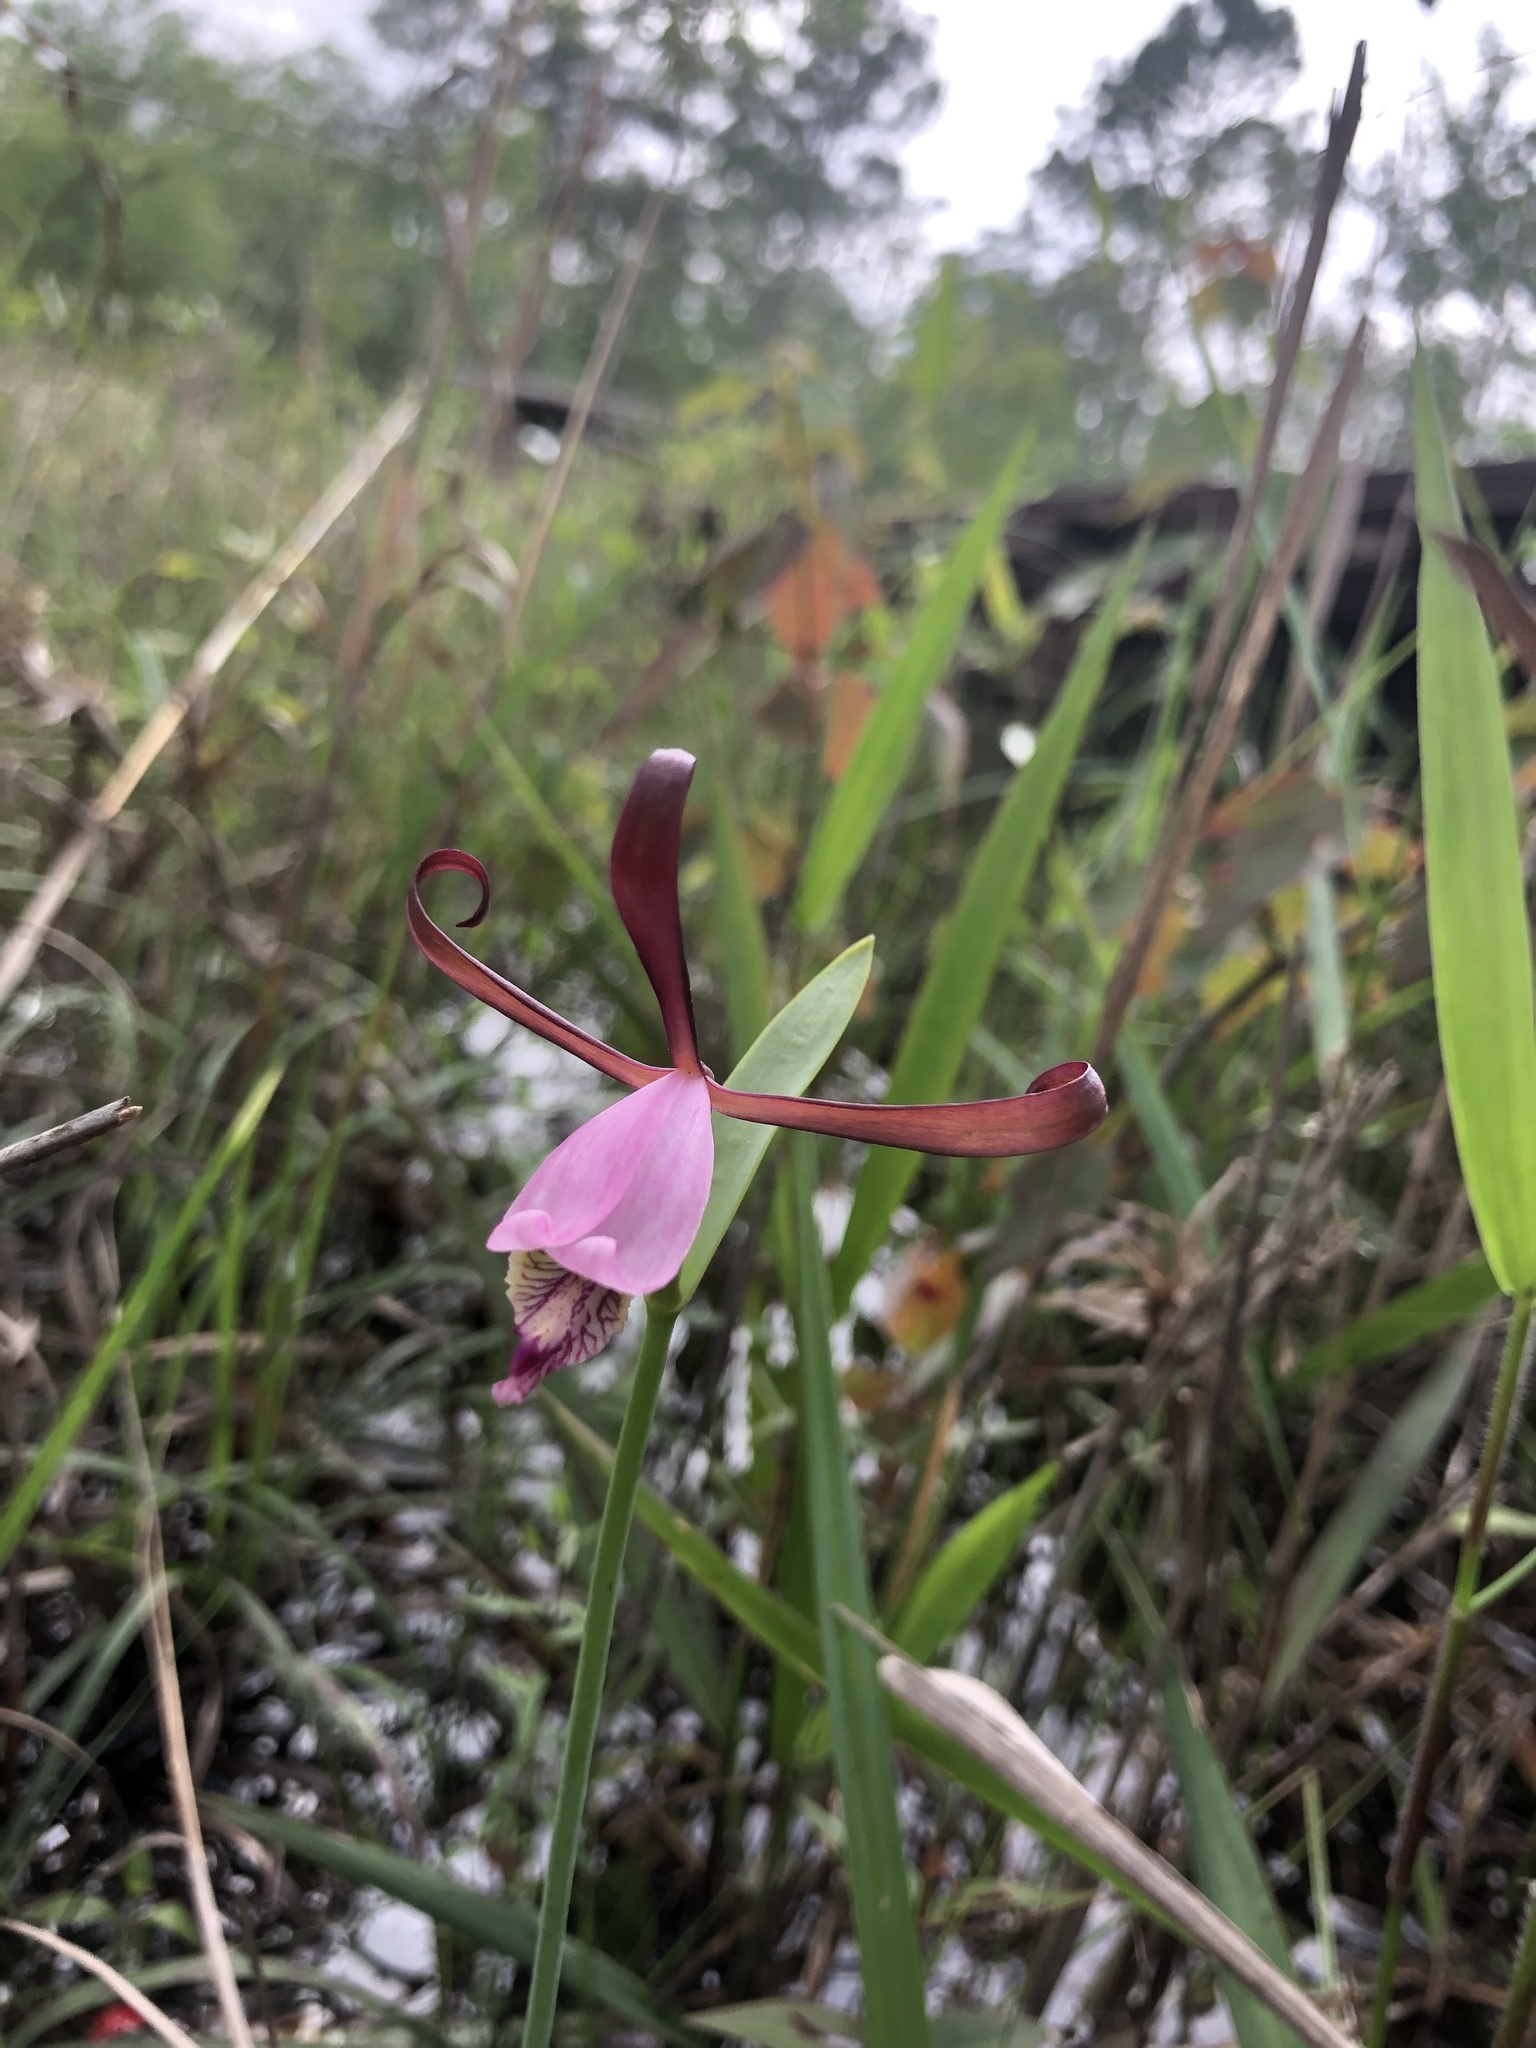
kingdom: Plantae
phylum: Tracheophyta
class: Liliopsida
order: Asparagales
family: Orchidaceae
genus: Cleistesiopsis
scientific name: Cleistesiopsis oricamporum
